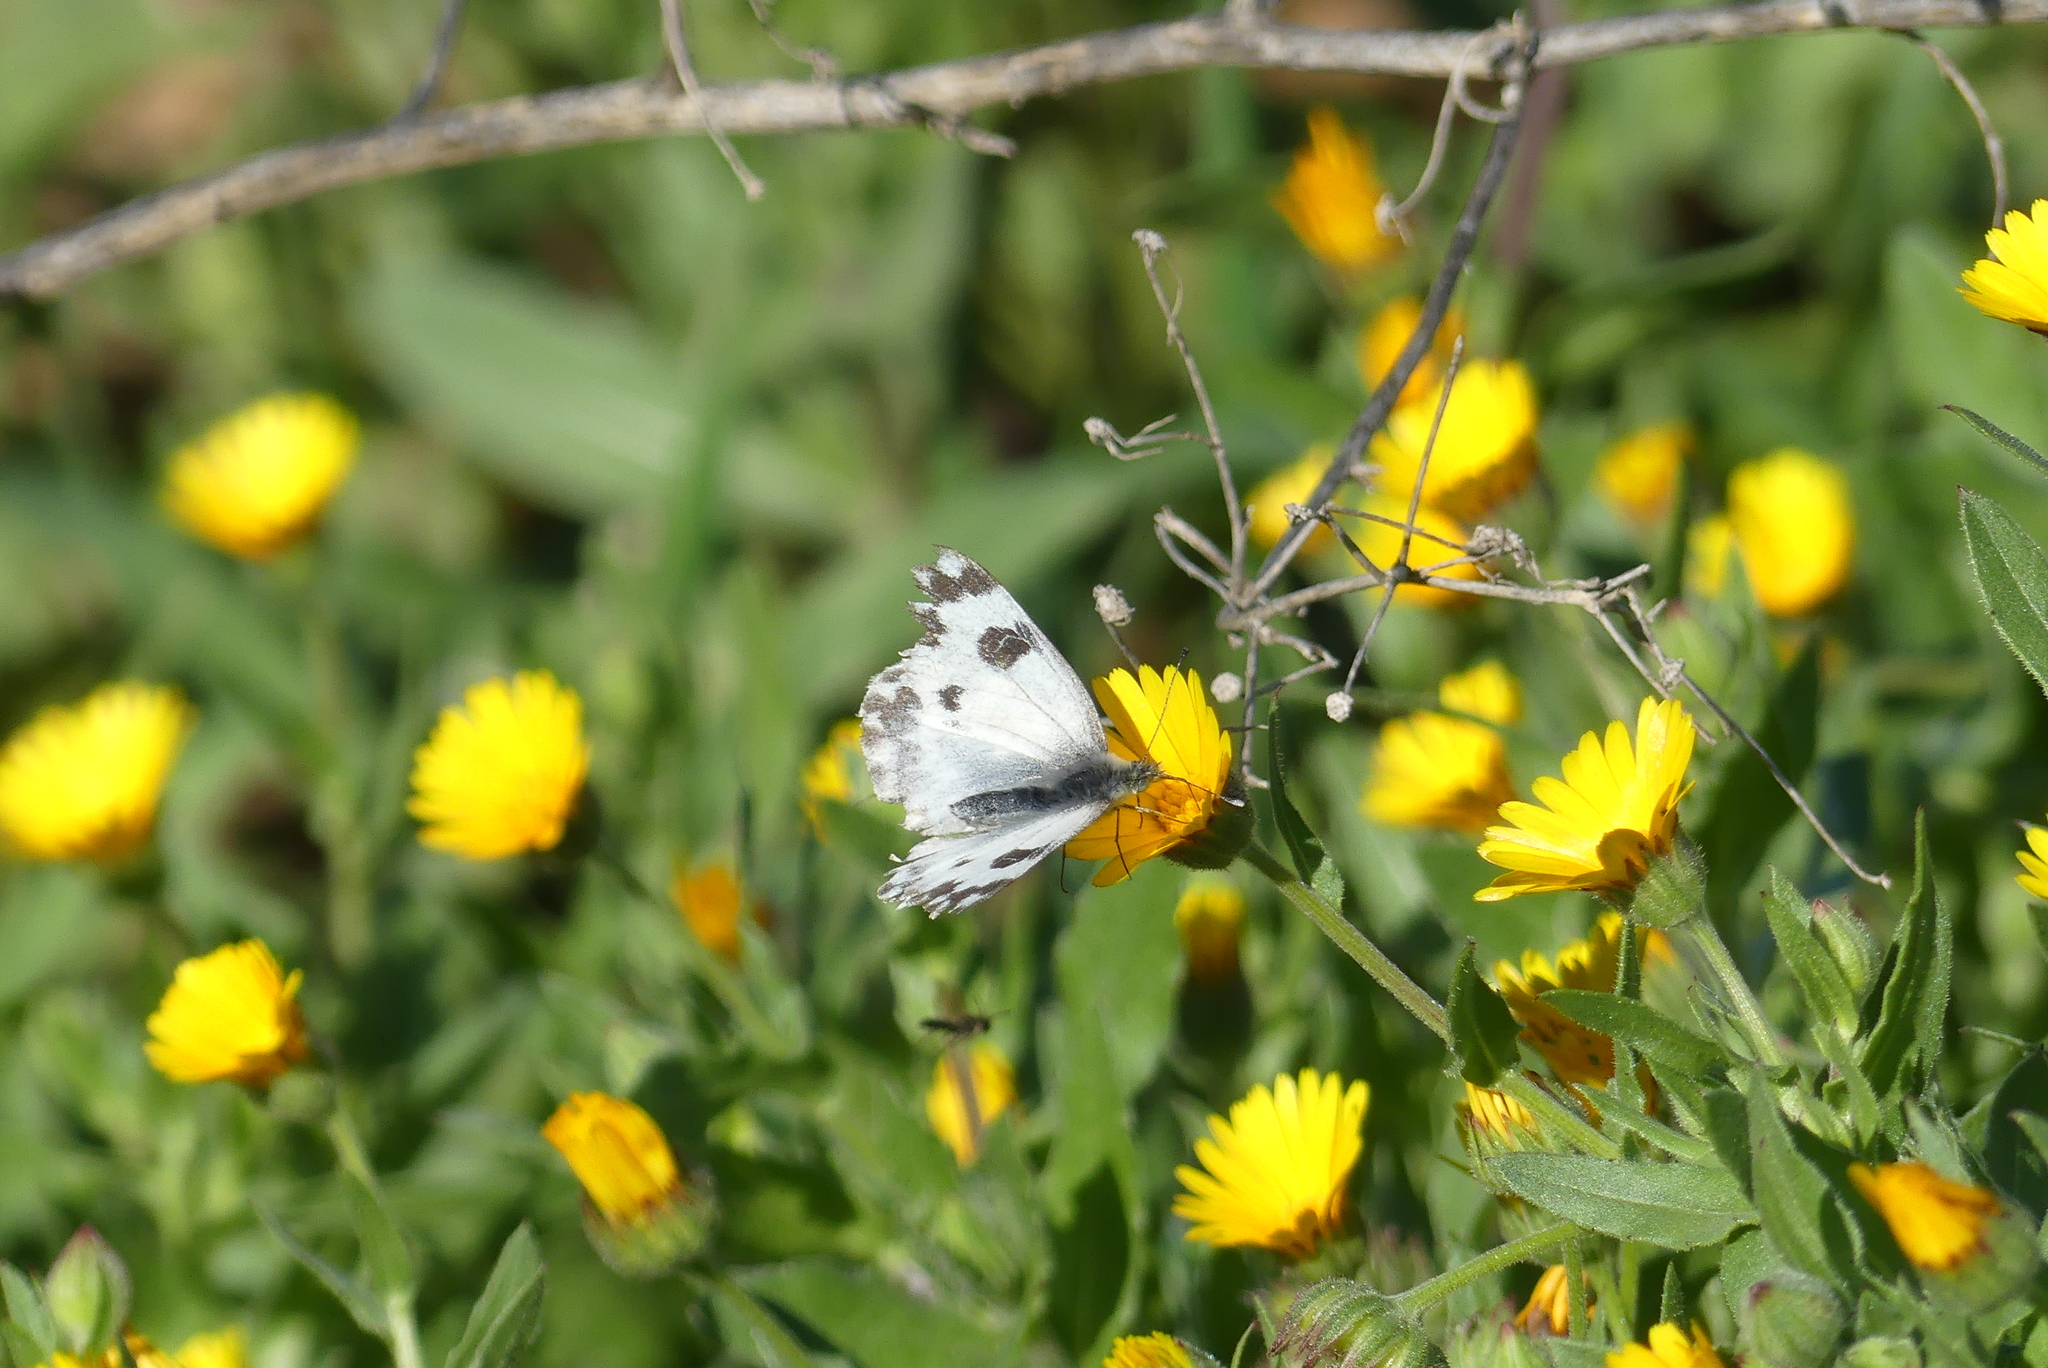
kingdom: Animalia
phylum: Arthropoda
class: Insecta
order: Lepidoptera
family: Pieridae
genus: Pontia
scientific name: Pontia daplidice
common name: Bath white
